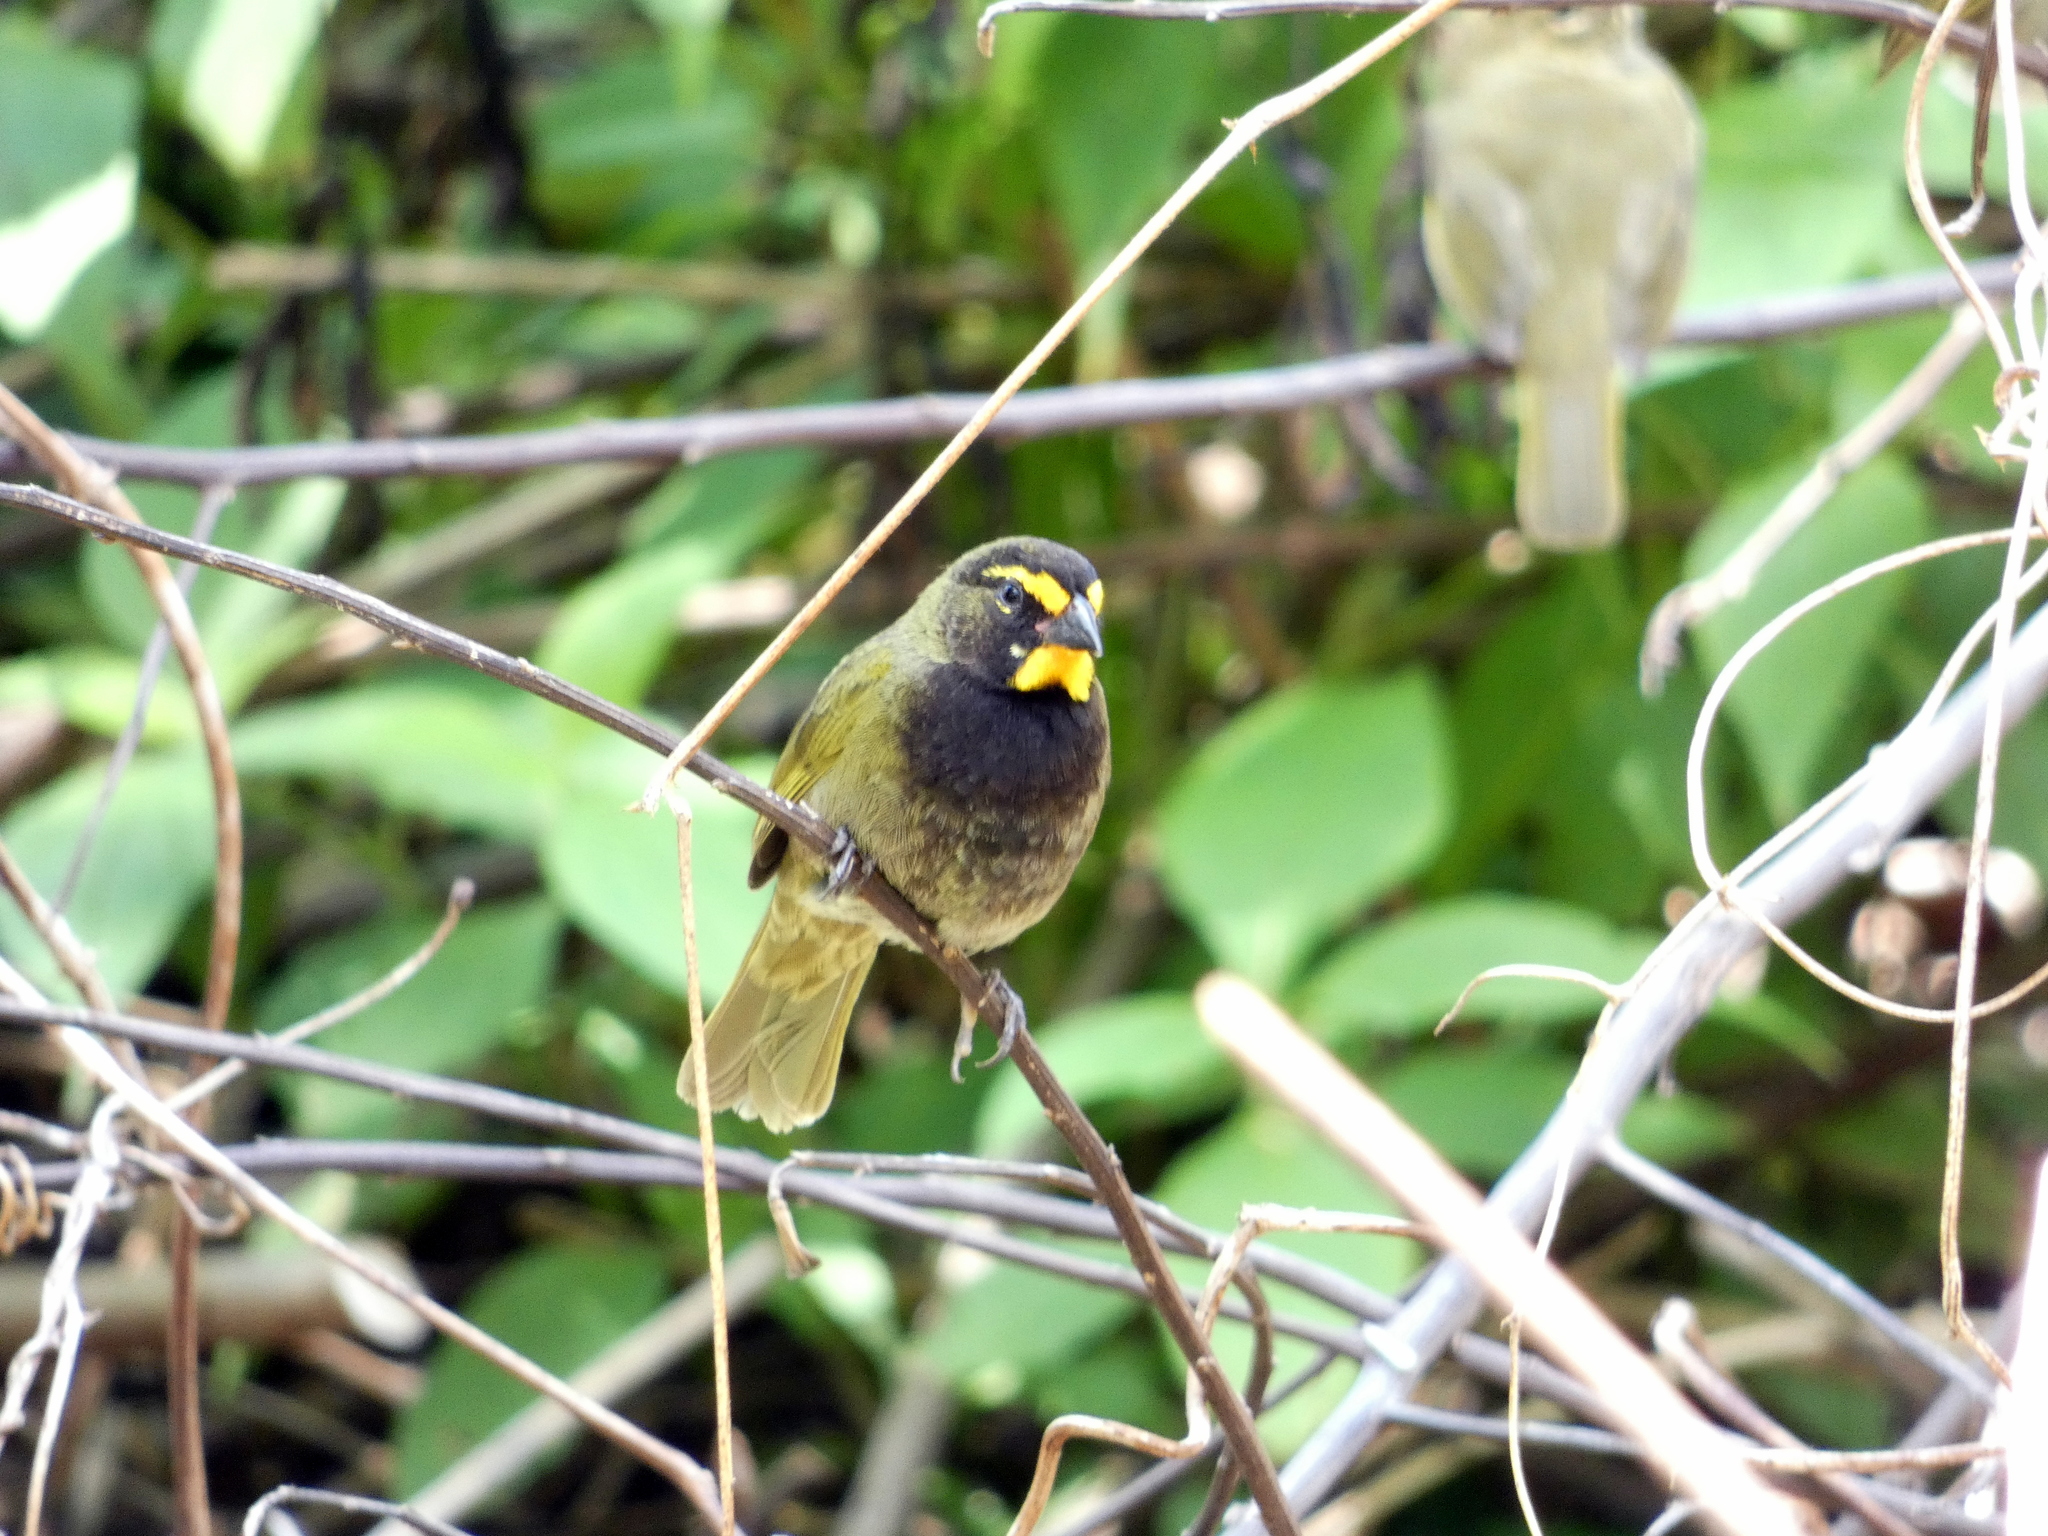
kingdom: Animalia
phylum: Chordata
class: Aves
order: Passeriformes
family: Thraupidae
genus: Tiaris
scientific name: Tiaris olivaceus
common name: Yellow-faced grassquit
